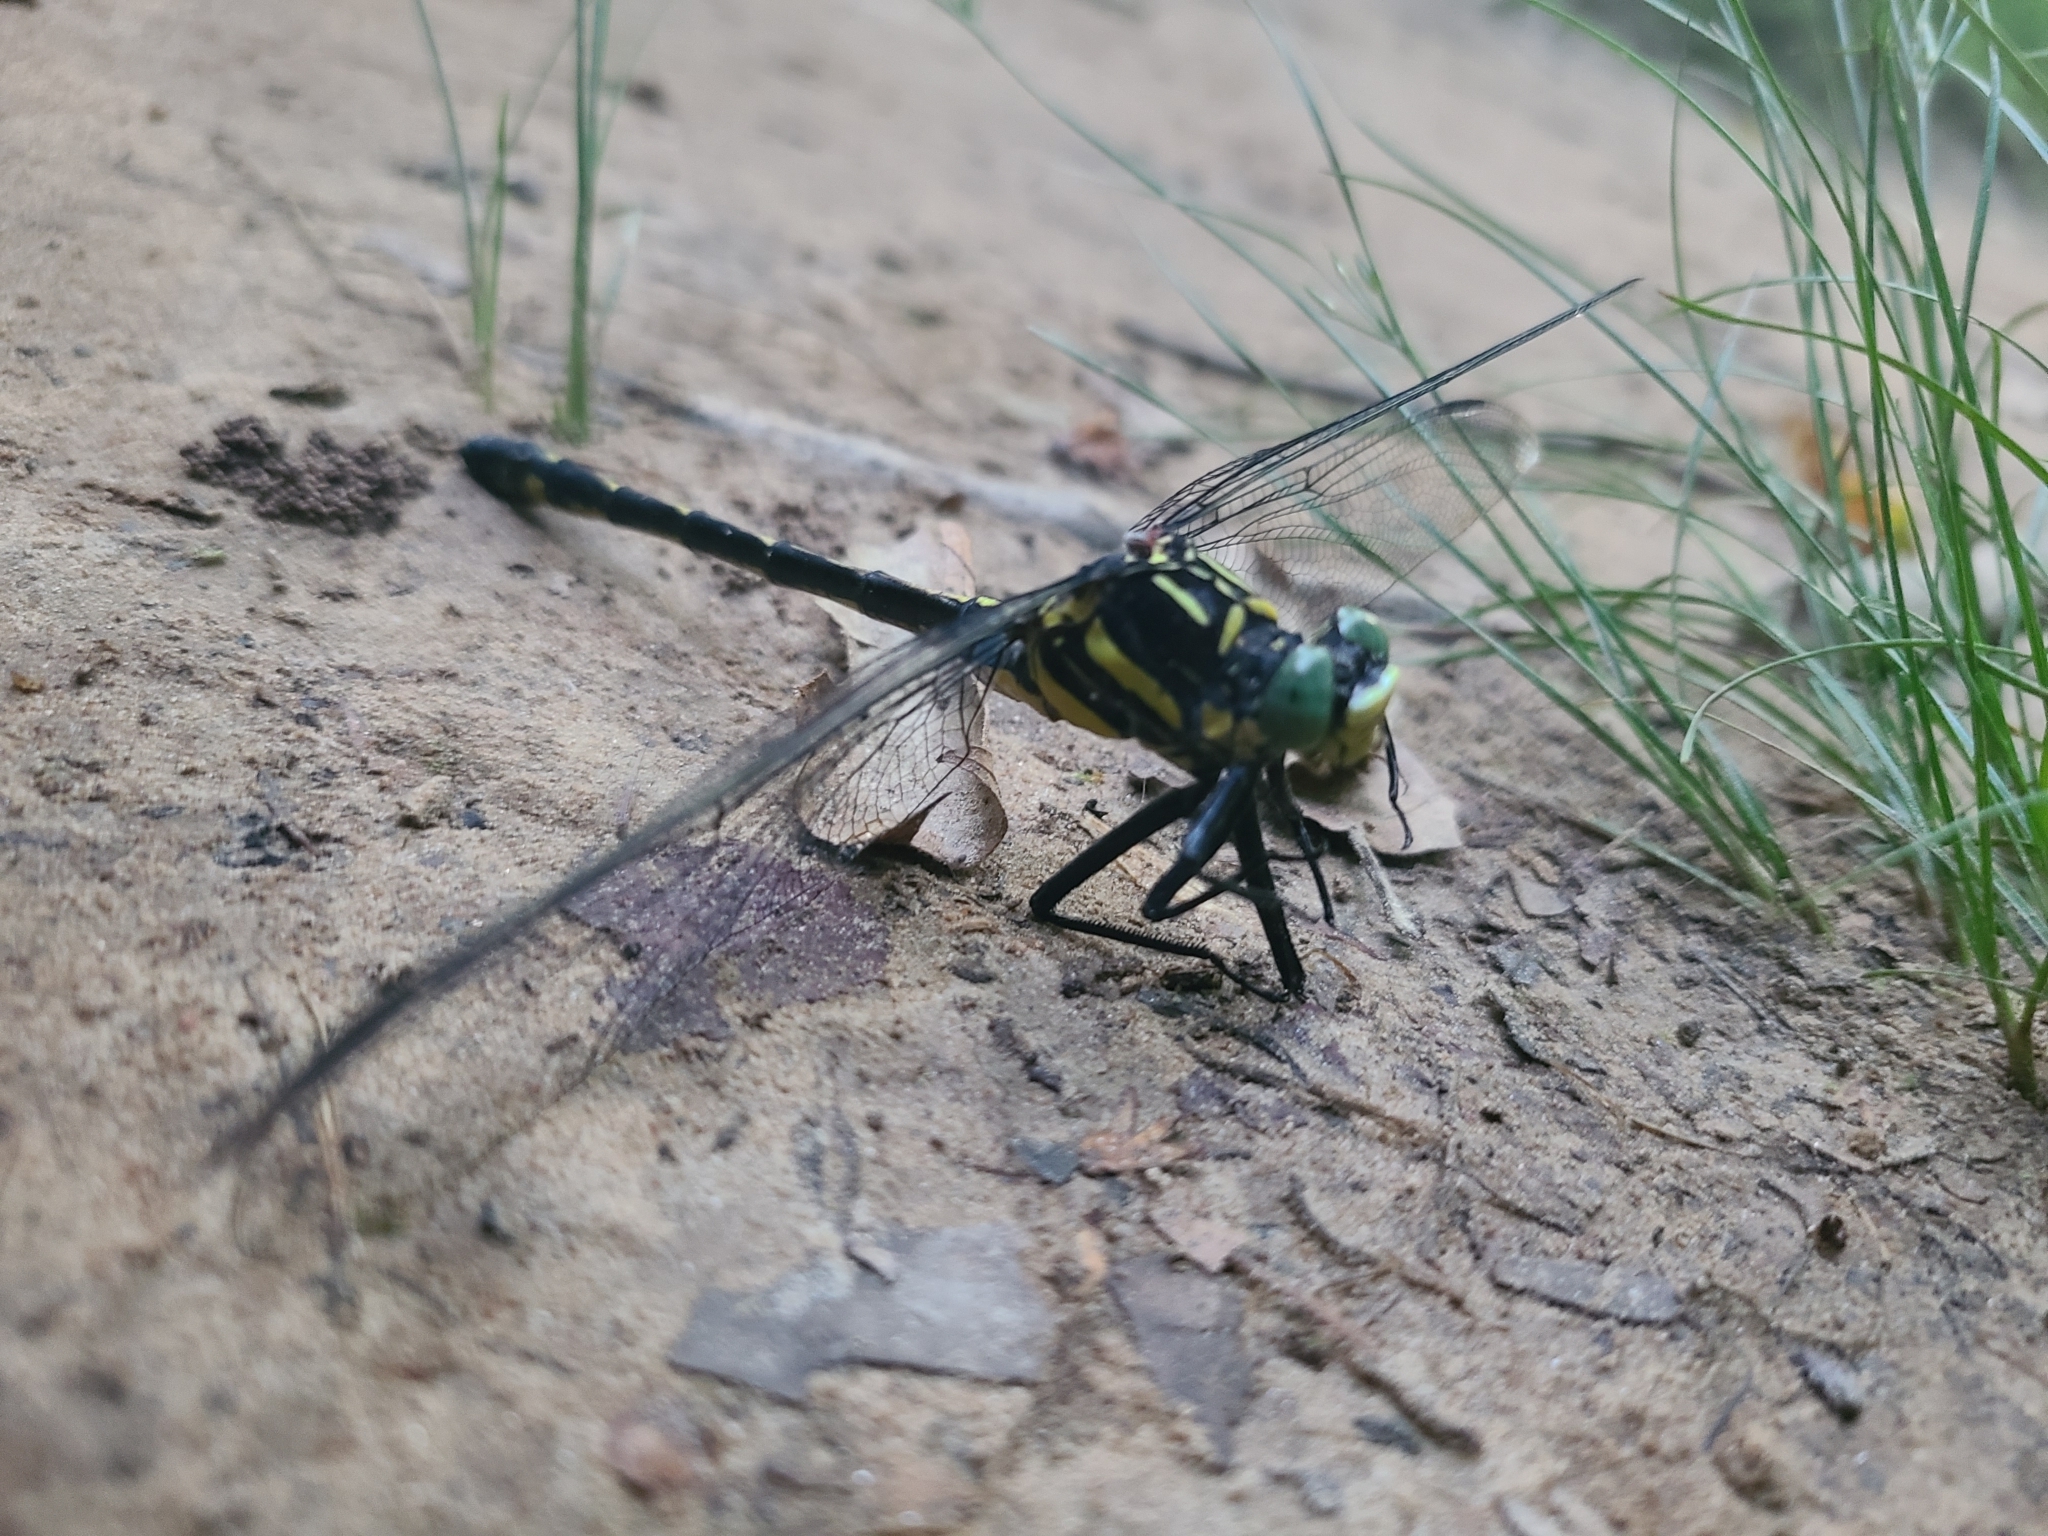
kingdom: Animalia
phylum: Arthropoda
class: Insecta
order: Odonata
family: Gomphidae
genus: Hagenius
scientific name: Hagenius brevistylus
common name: Dragonhunter
